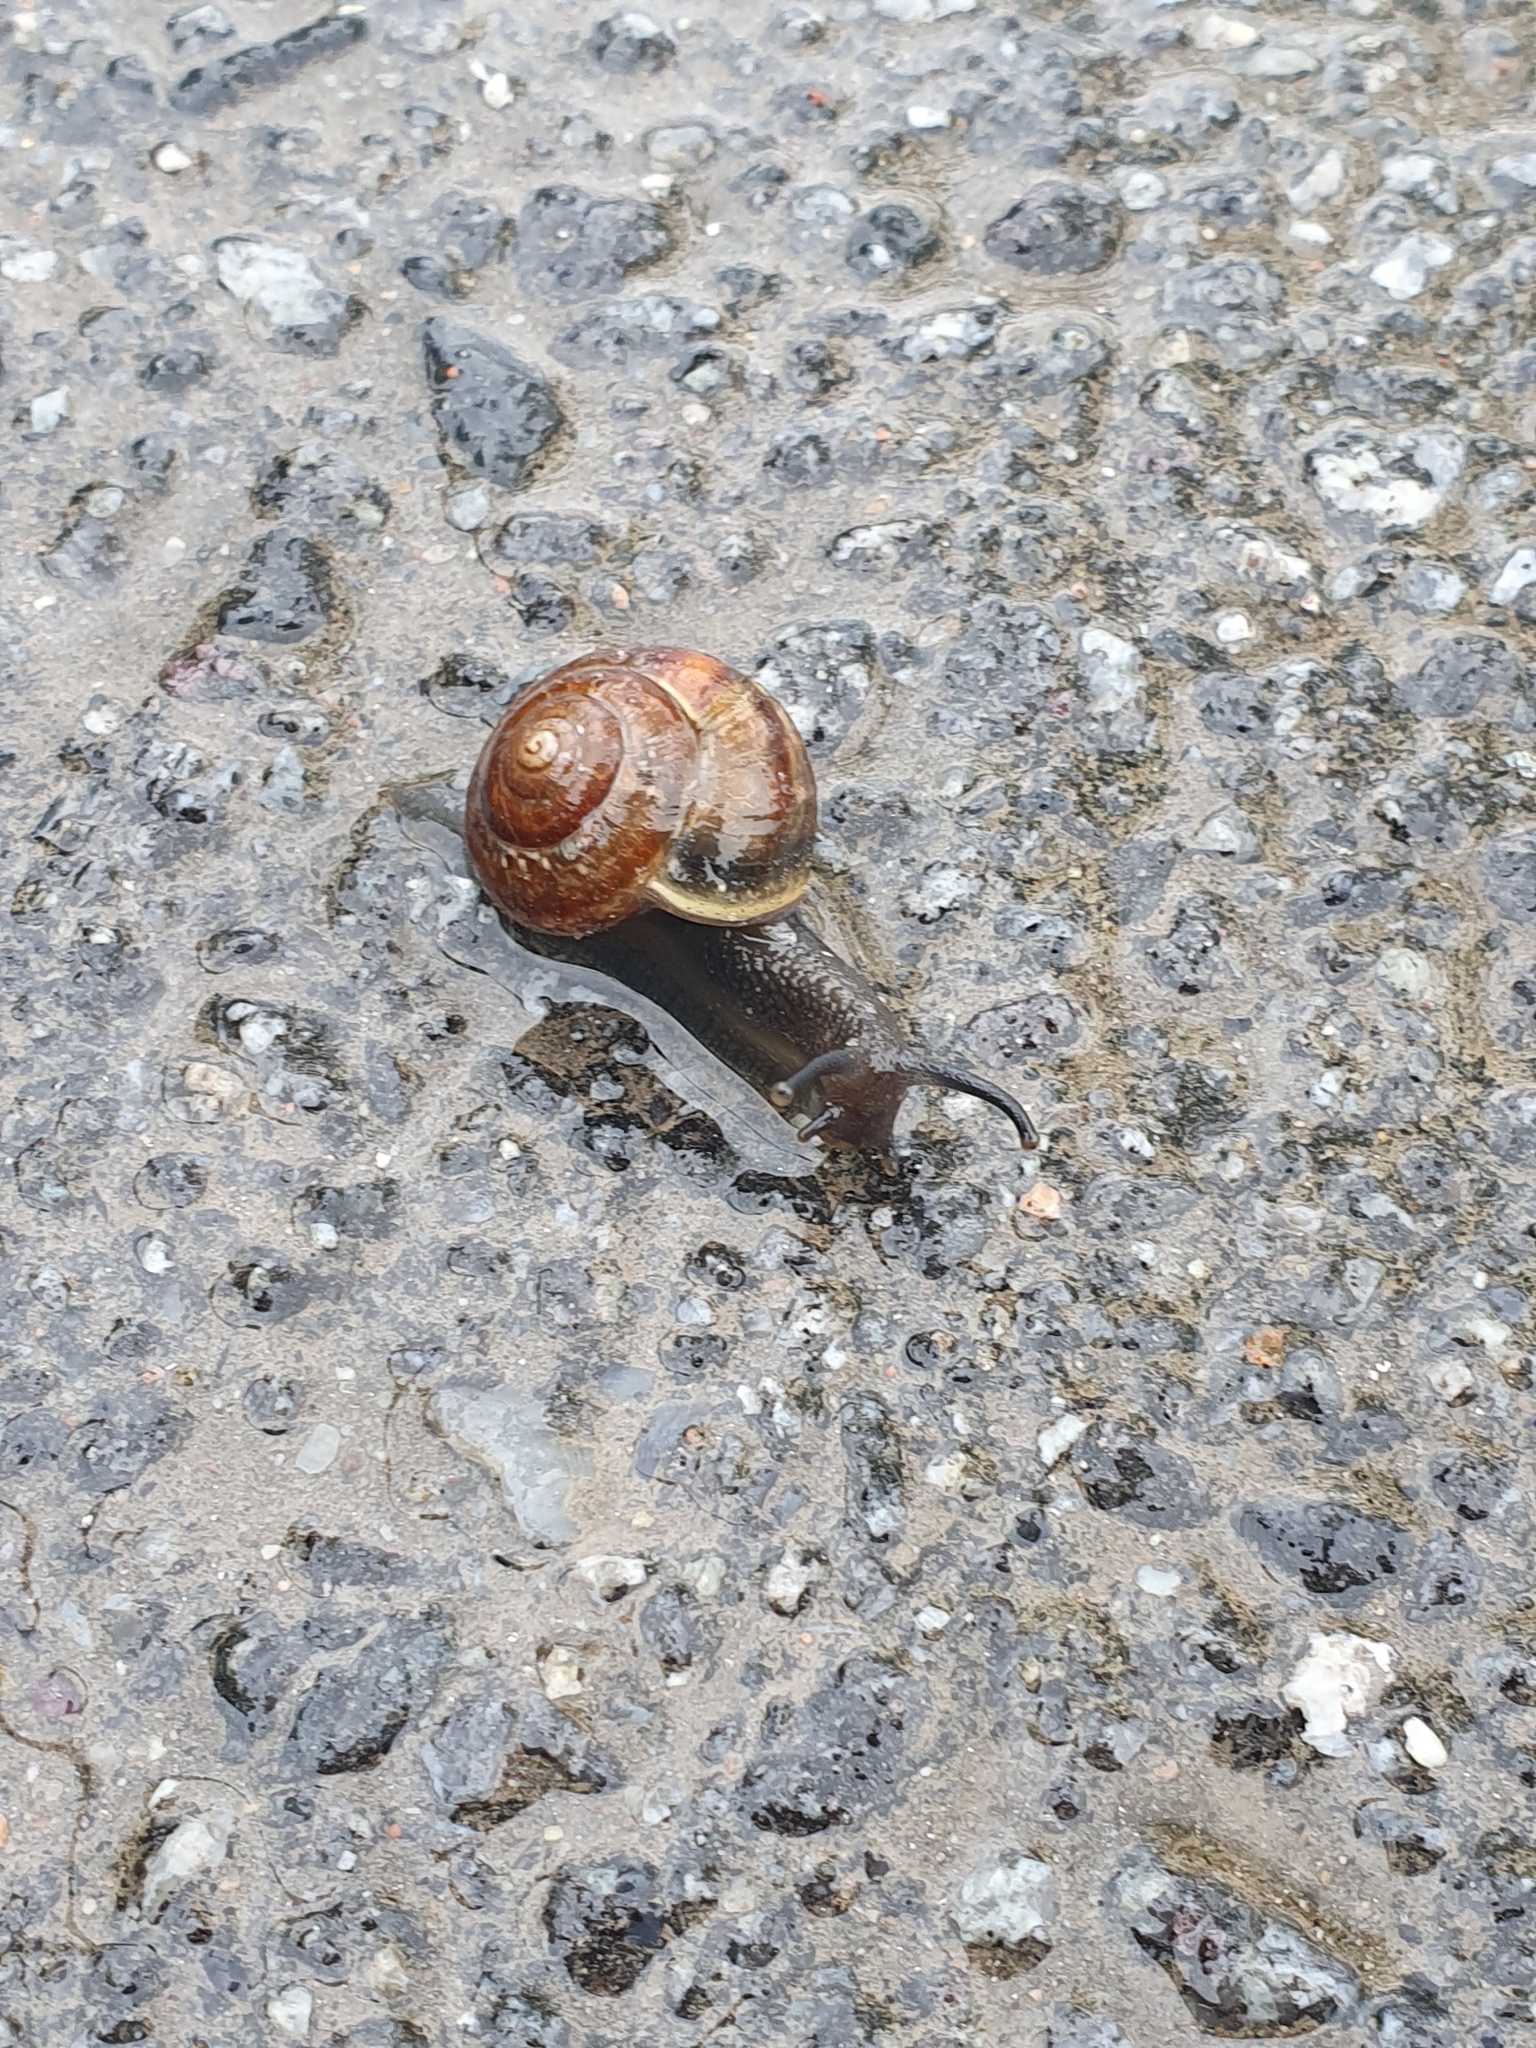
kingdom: Animalia
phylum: Mollusca
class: Gastropoda
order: Stylommatophora
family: Helicidae
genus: Arianta
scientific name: Arianta arbustorum
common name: Copse snail
